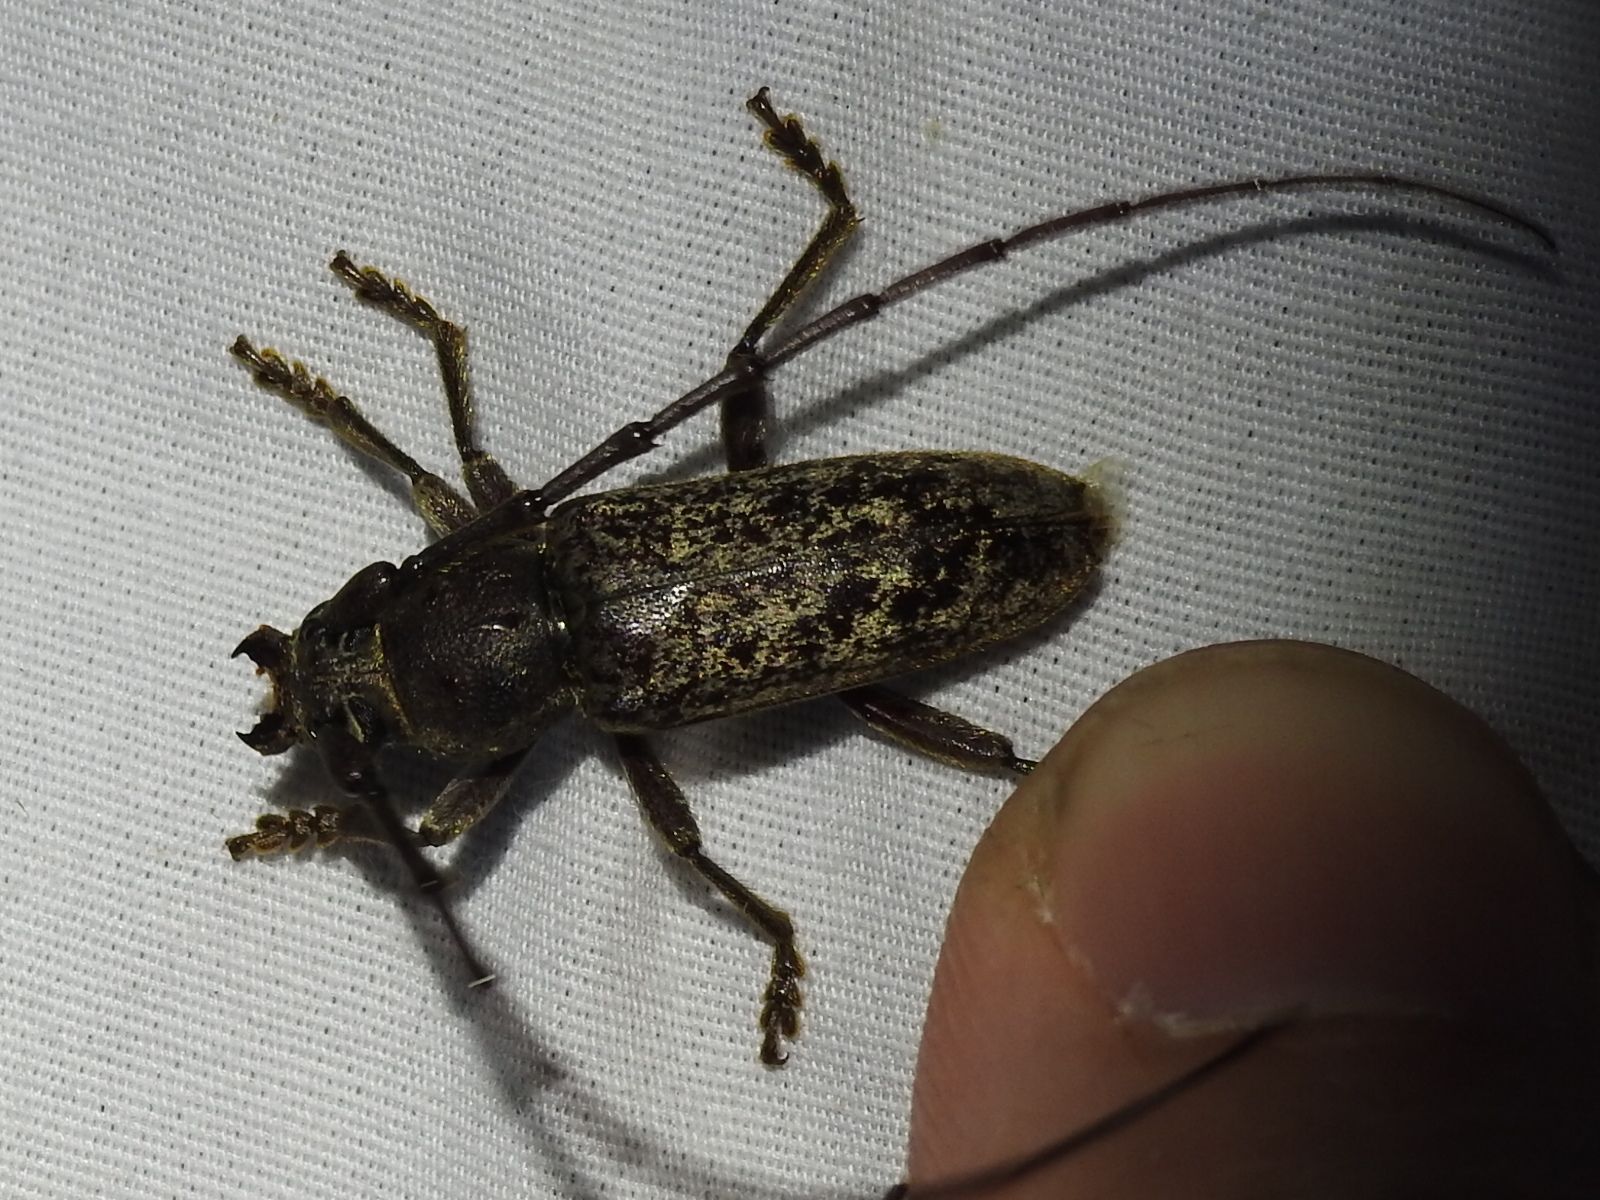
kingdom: Animalia
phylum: Arthropoda
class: Insecta
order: Coleoptera
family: Cerambycidae
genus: Enaphalodes
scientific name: Enaphalodes atomarius
